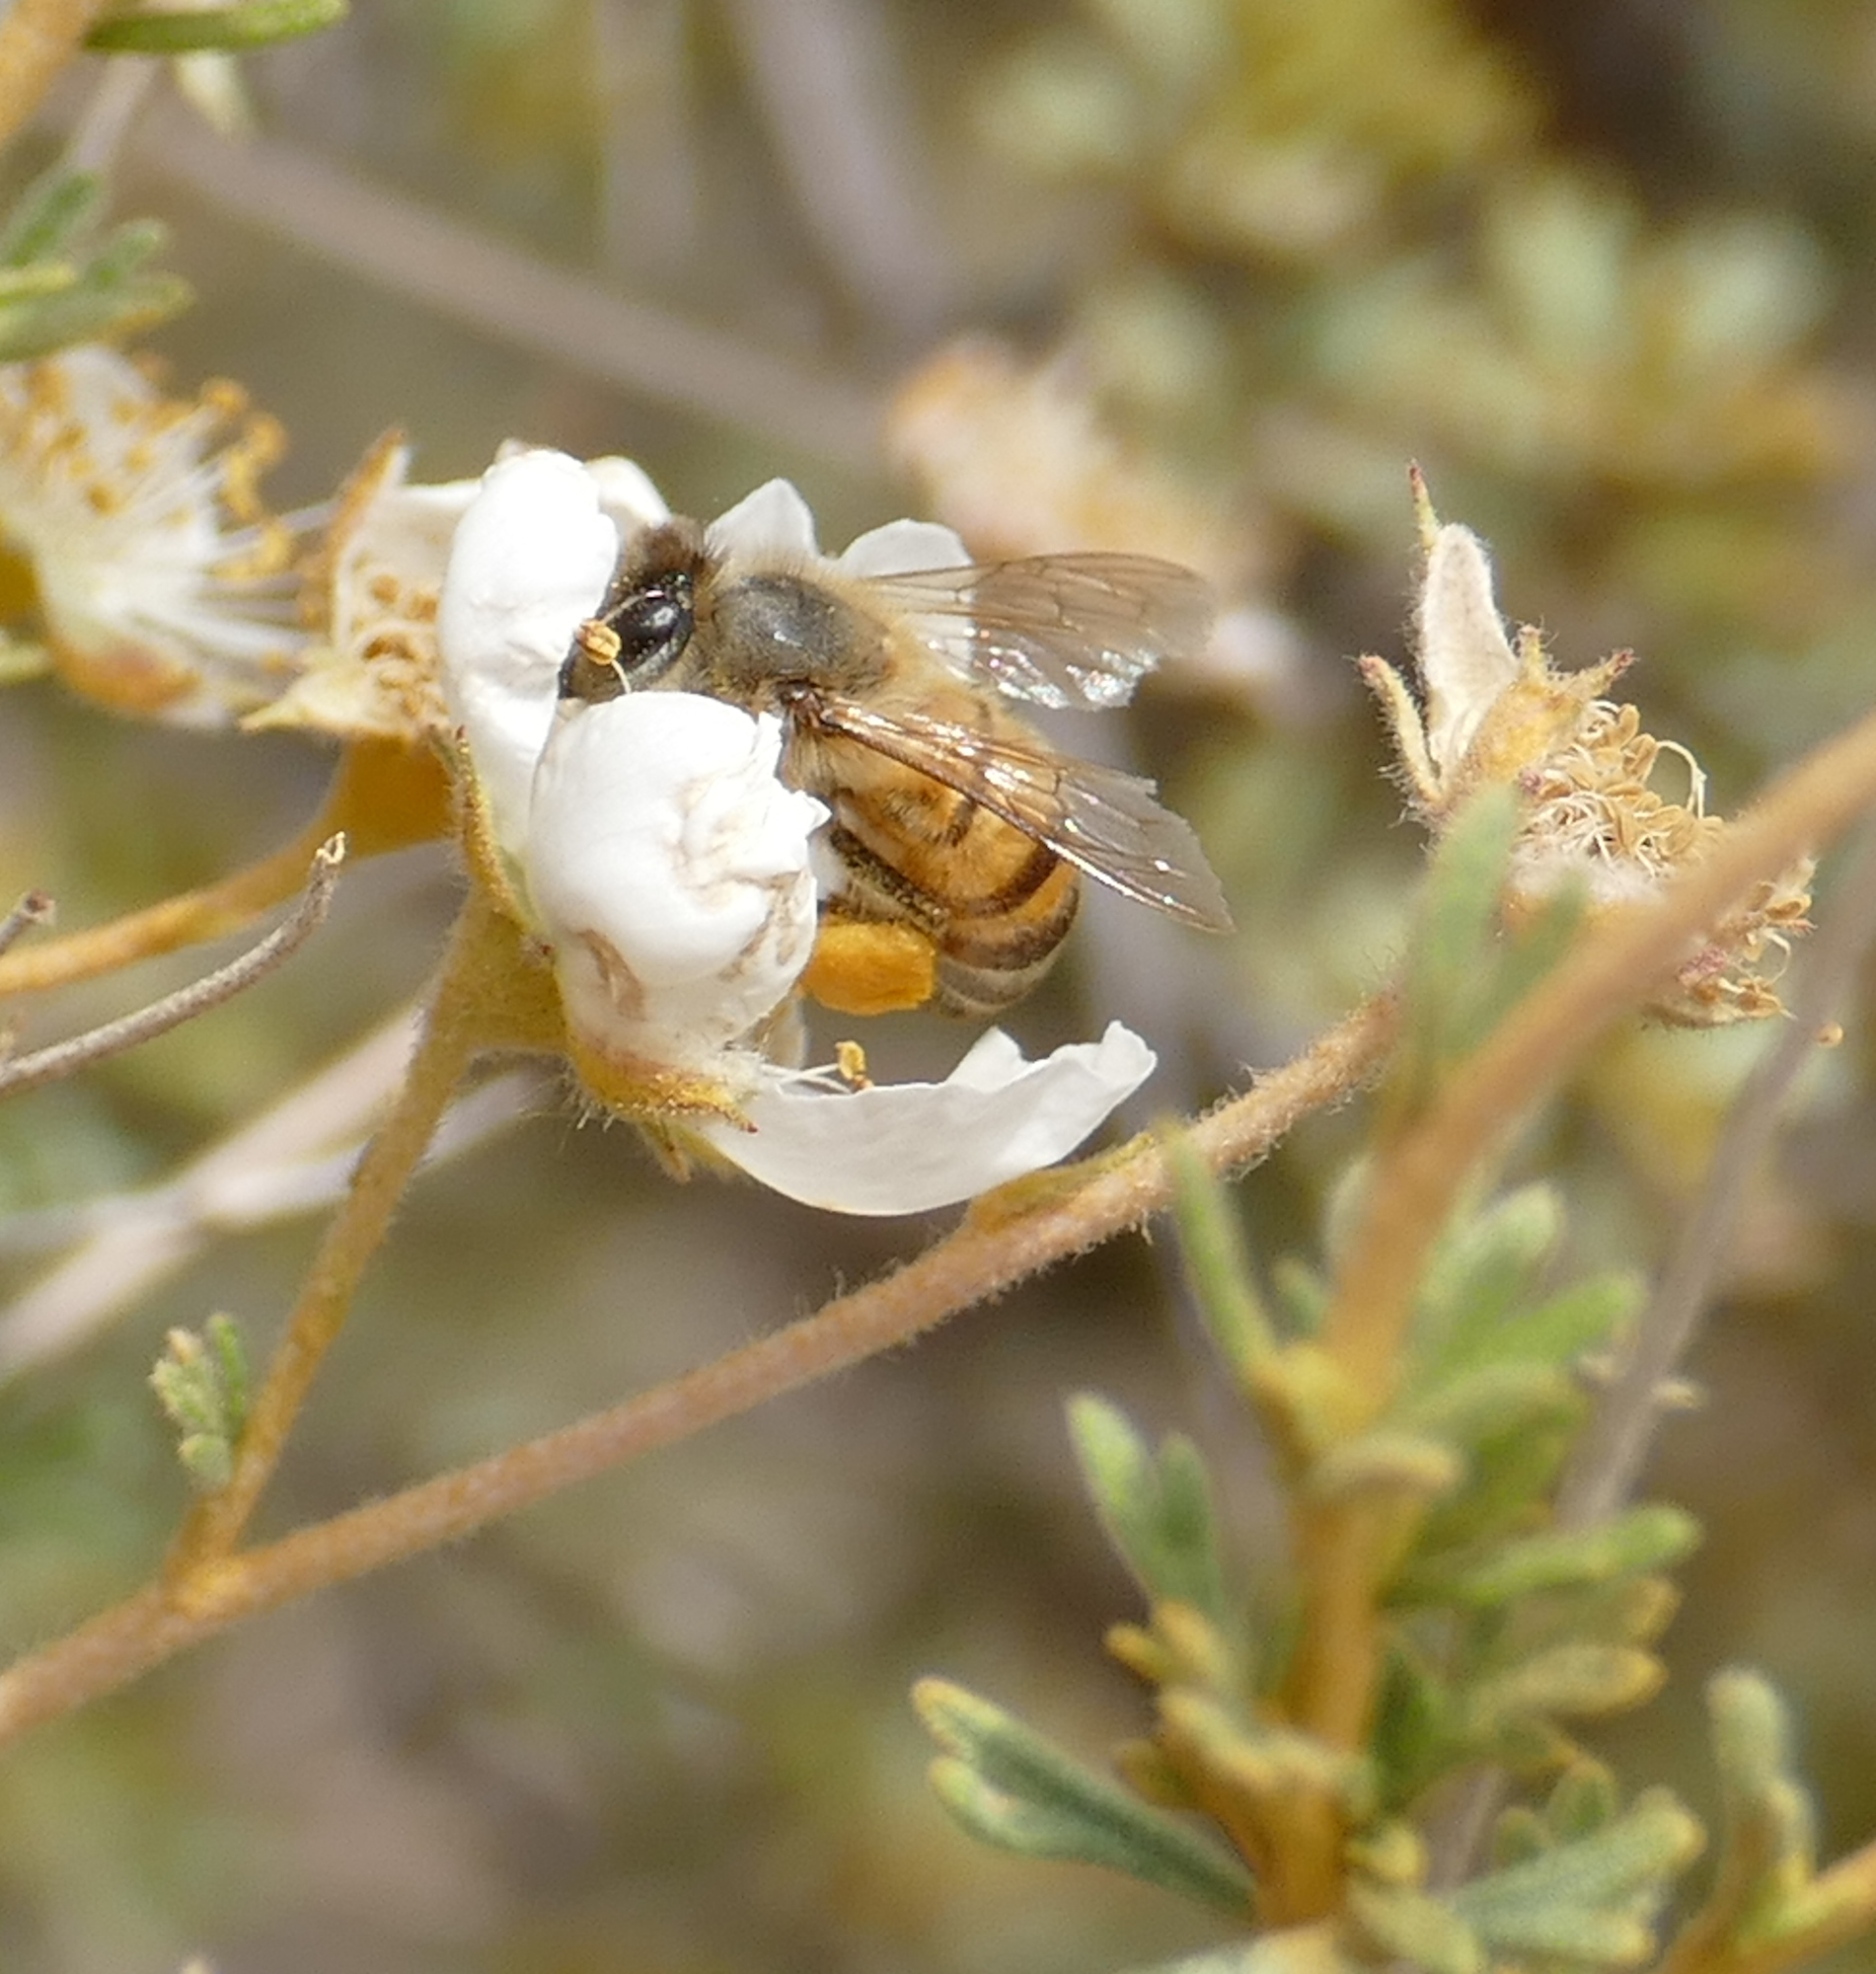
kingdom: Animalia
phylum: Arthropoda
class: Insecta
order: Hymenoptera
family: Apidae
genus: Apis
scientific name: Apis mellifera
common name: Honey bee
